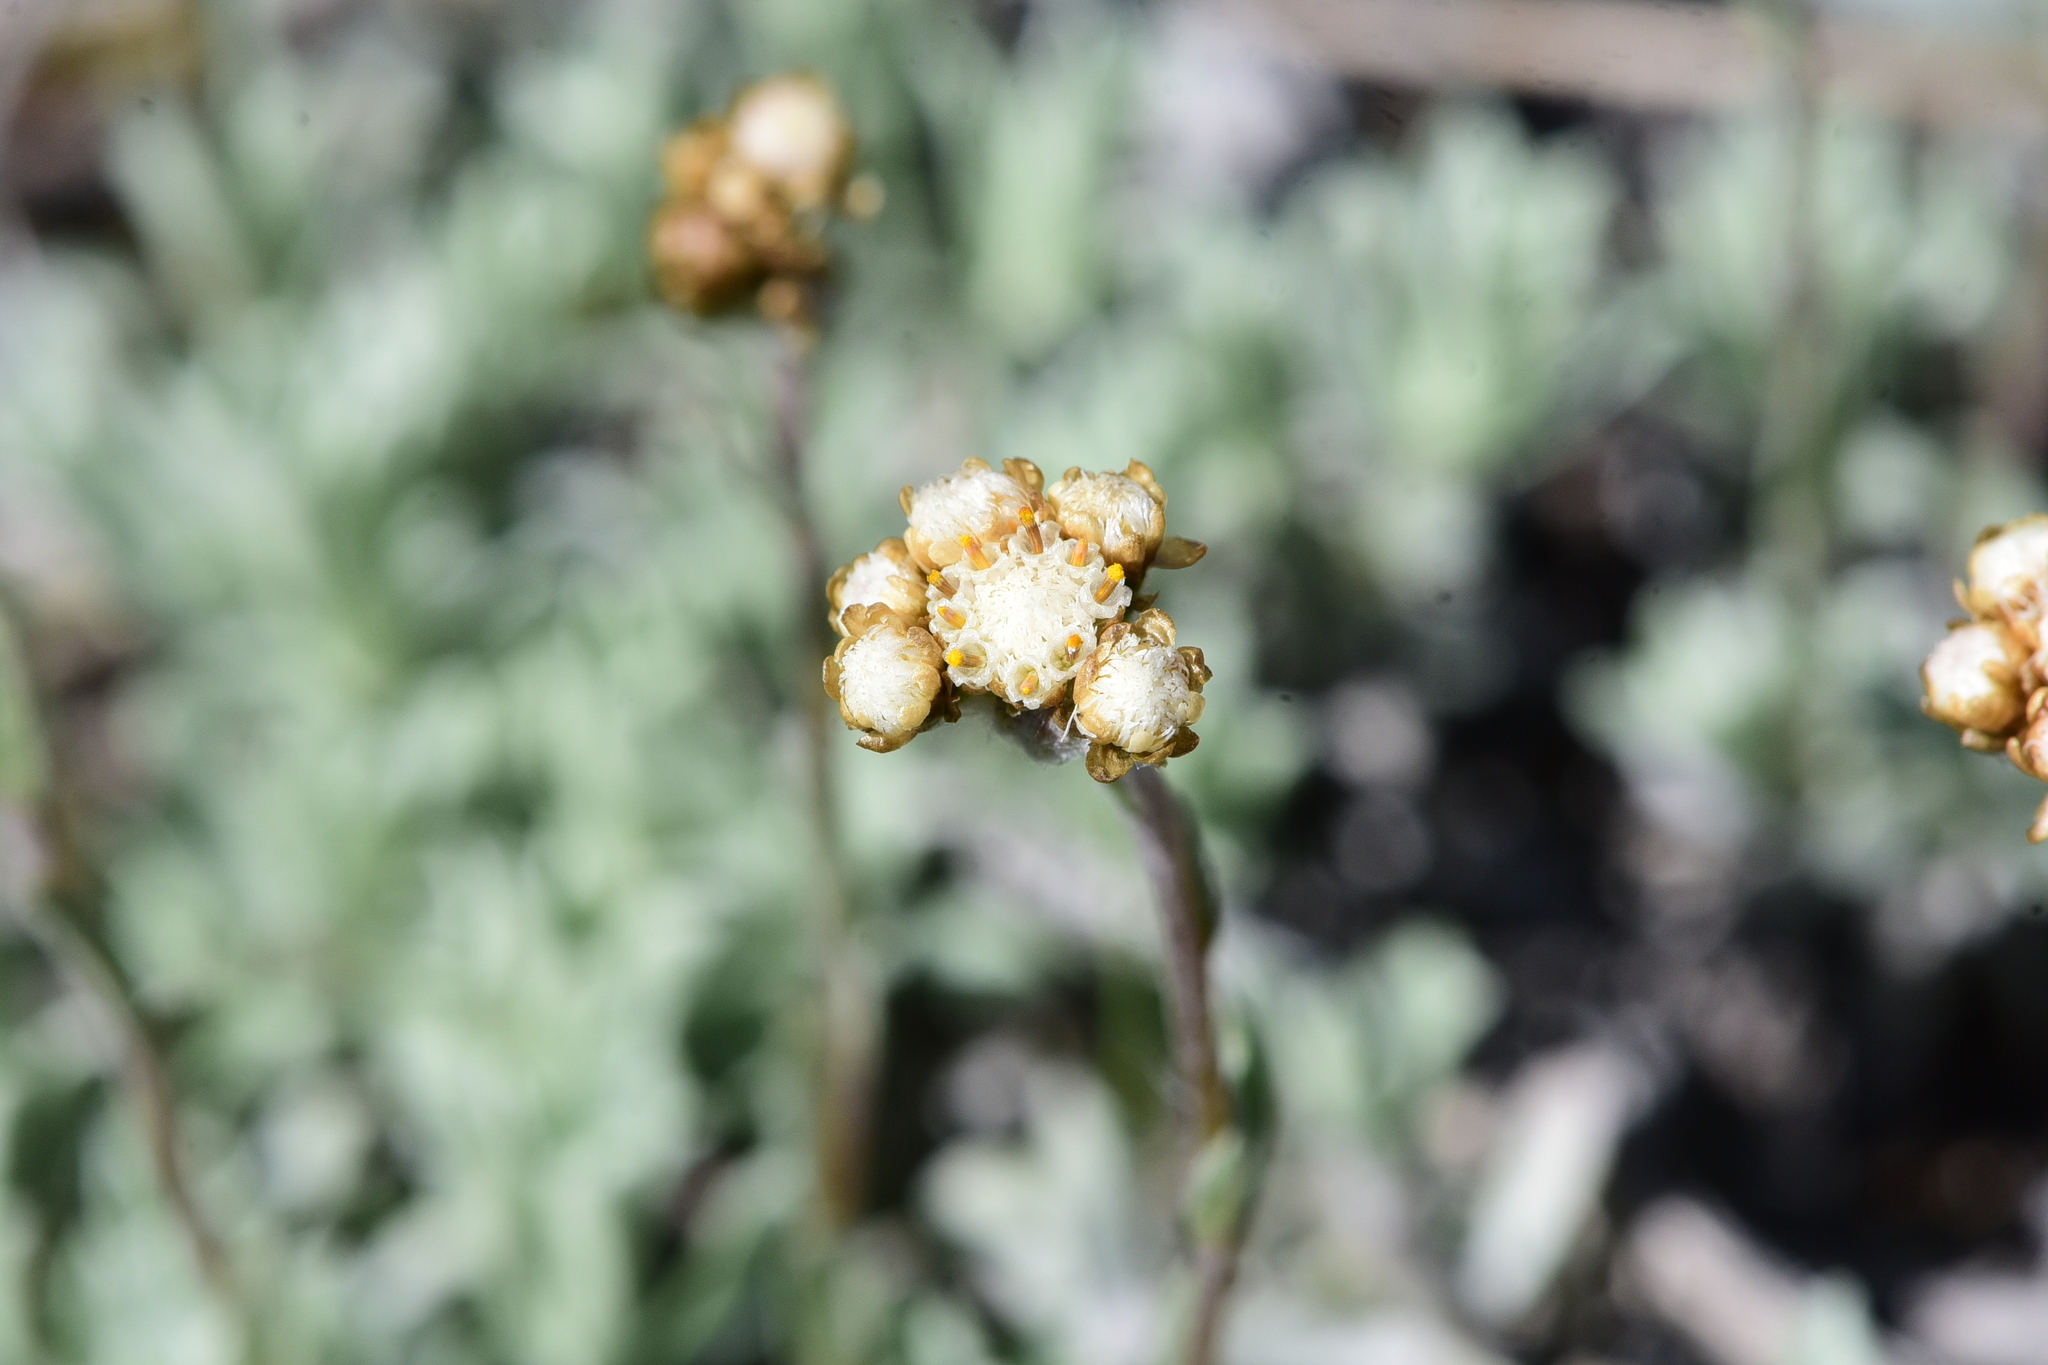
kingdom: Plantae
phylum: Tracheophyta
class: Magnoliopsida
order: Asterales
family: Asteraceae
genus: Antennaria
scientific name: Antennaria umbrinella
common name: Brown pussytoes
